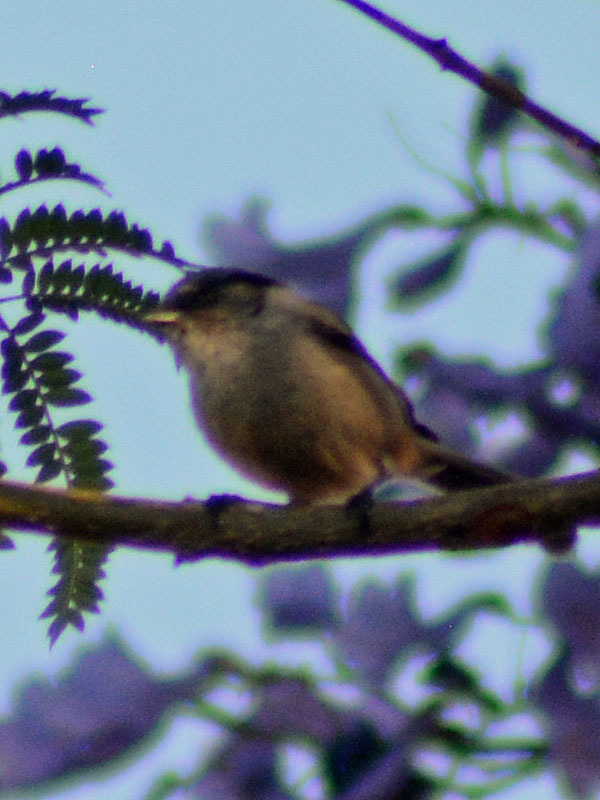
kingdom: Animalia
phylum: Chordata
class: Aves
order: Passeriformes
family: Aegithalidae
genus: Psaltriparus
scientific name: Psaltriparus minimus
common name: American bushtit
